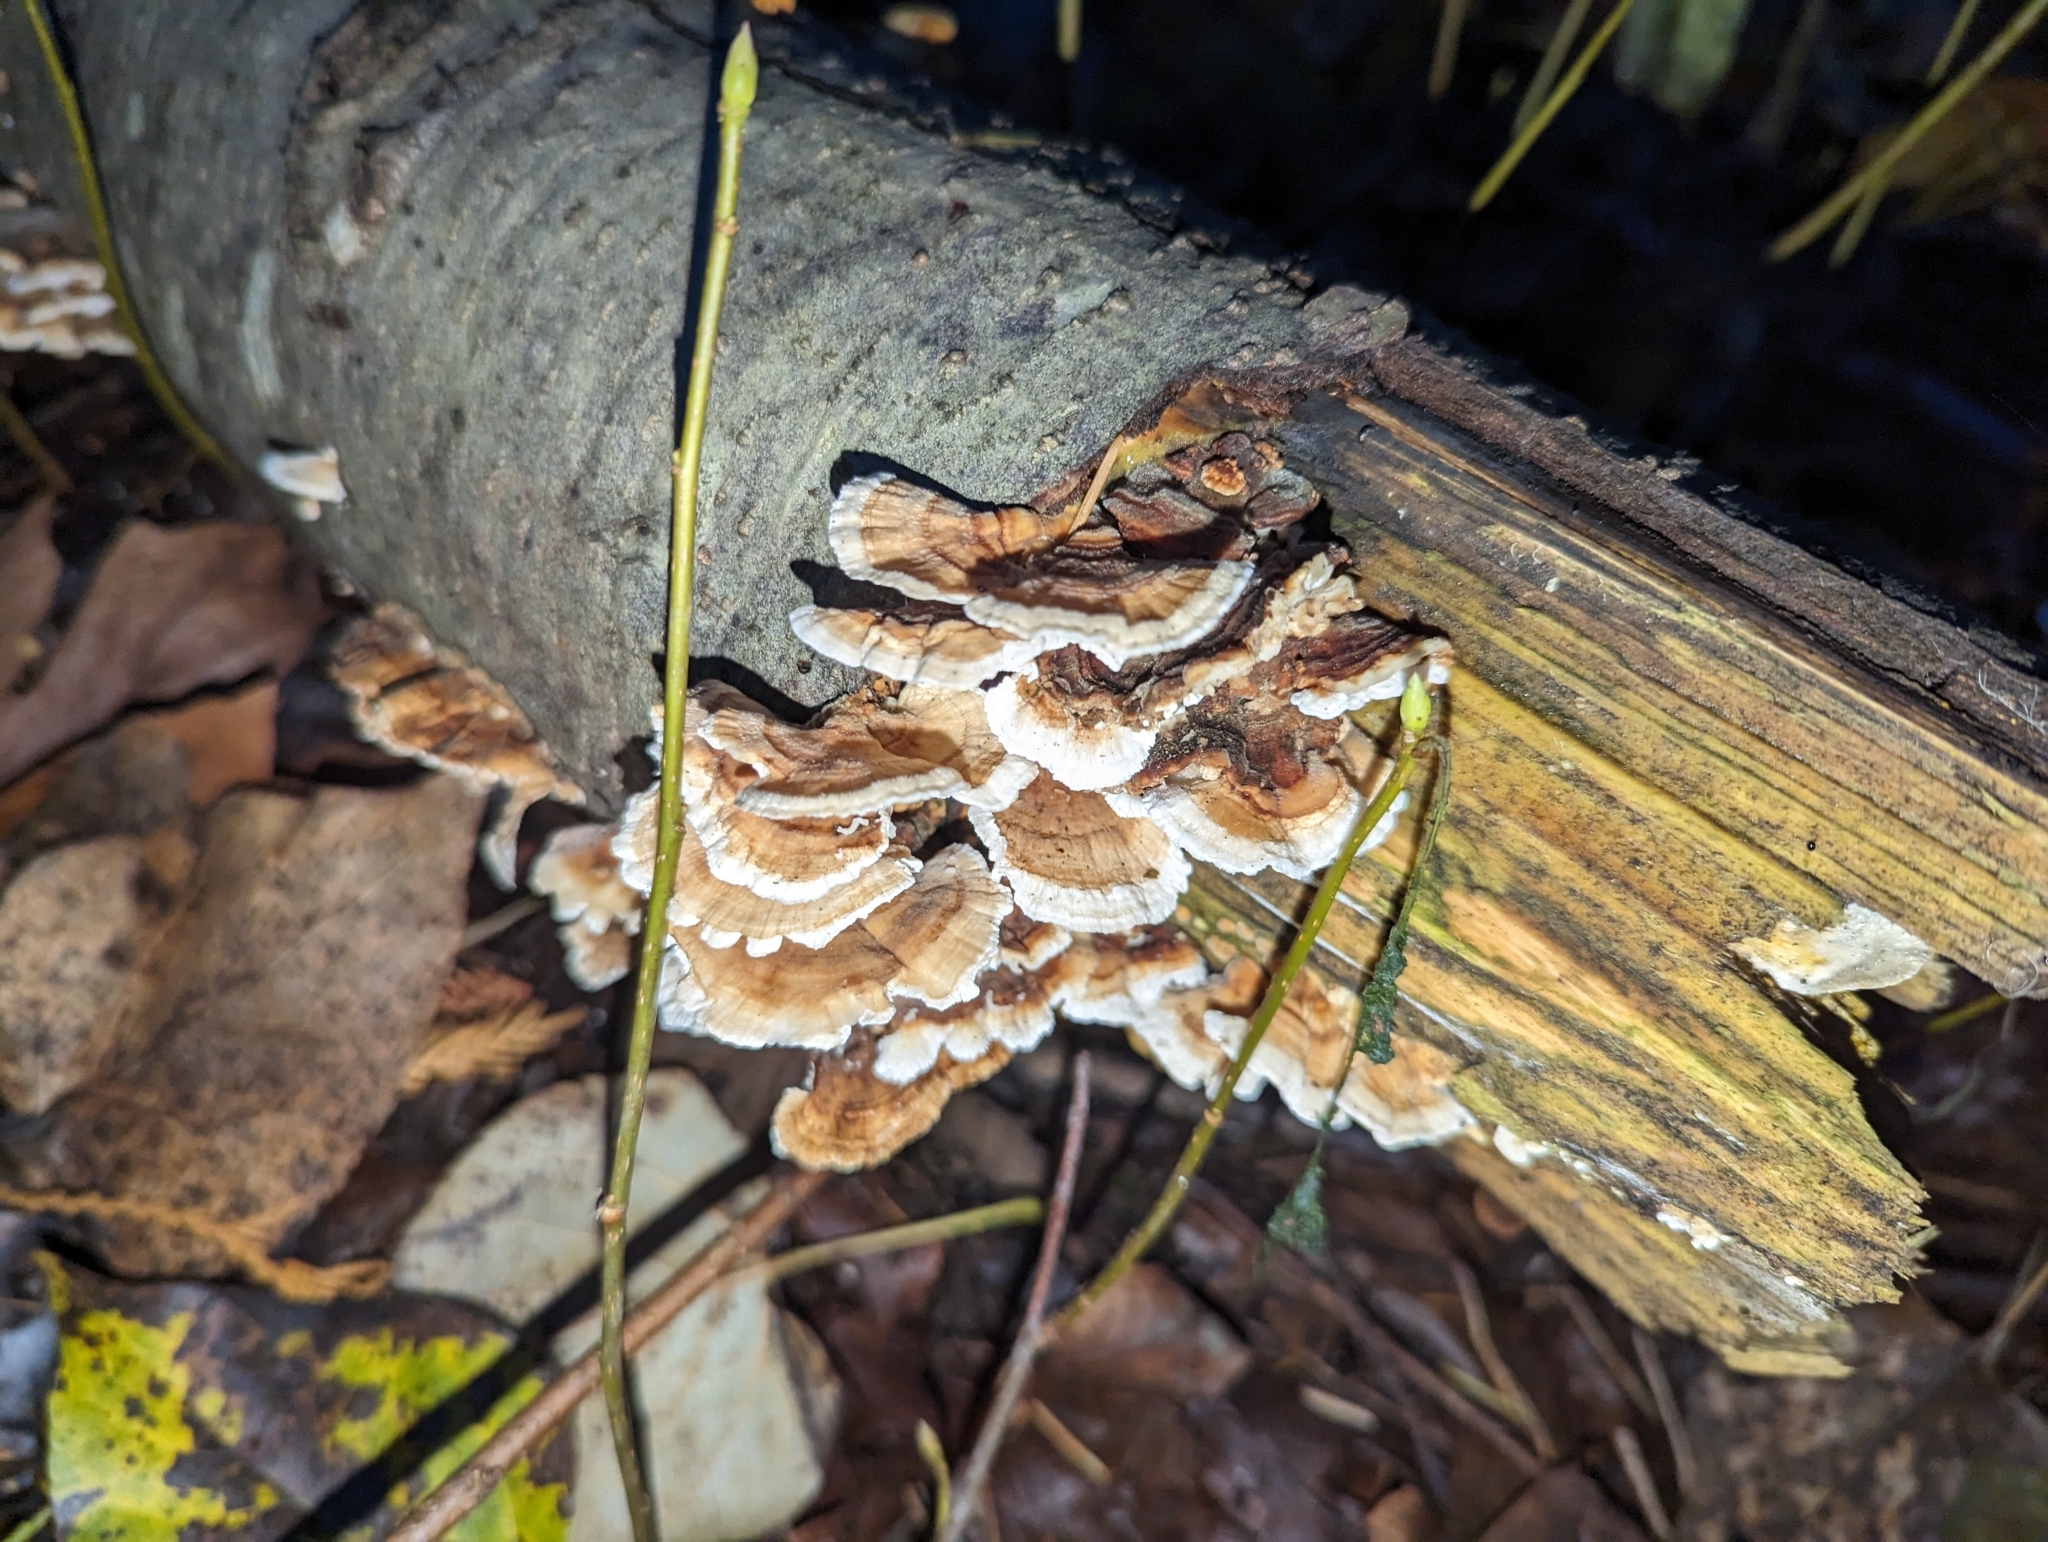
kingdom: Fungi
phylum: Basidiomycota
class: Agaricomycetes
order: Polyporales
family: Polyporaceae
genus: Trametes
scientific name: Trametes versicolor
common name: Turkeytail
